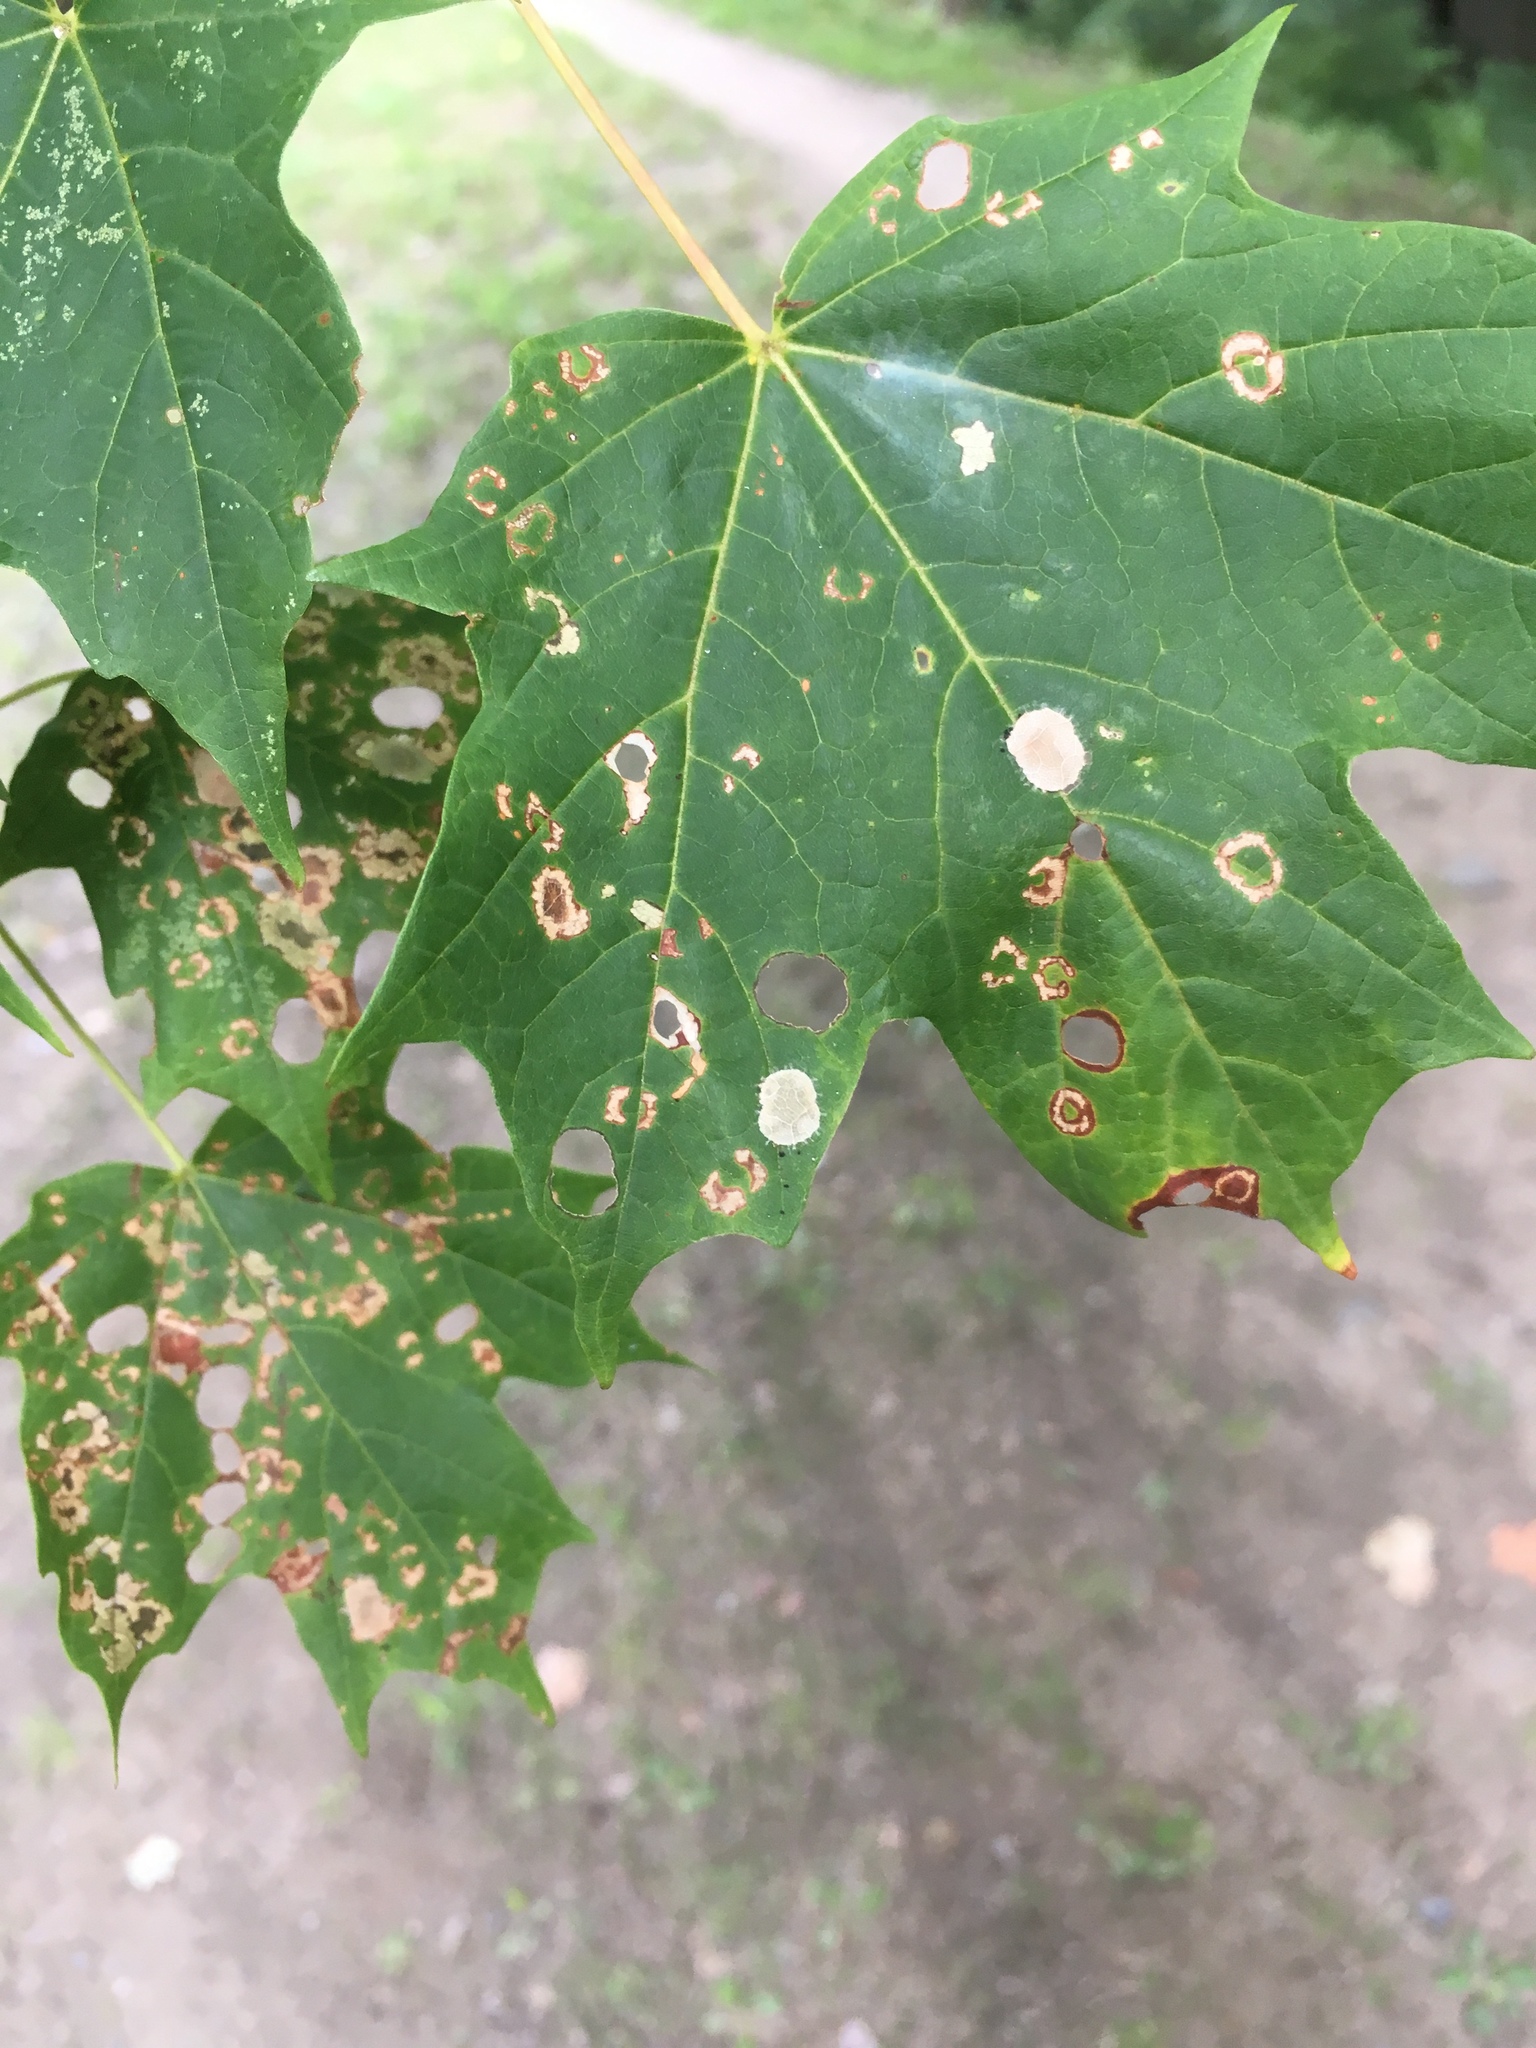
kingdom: Animalia
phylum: Arthropoda
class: Insecta
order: Lepidoptera
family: Incurvariidae
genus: Paraclemensia
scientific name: Paraclemensia acerifoliella
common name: Maple leafcutter
